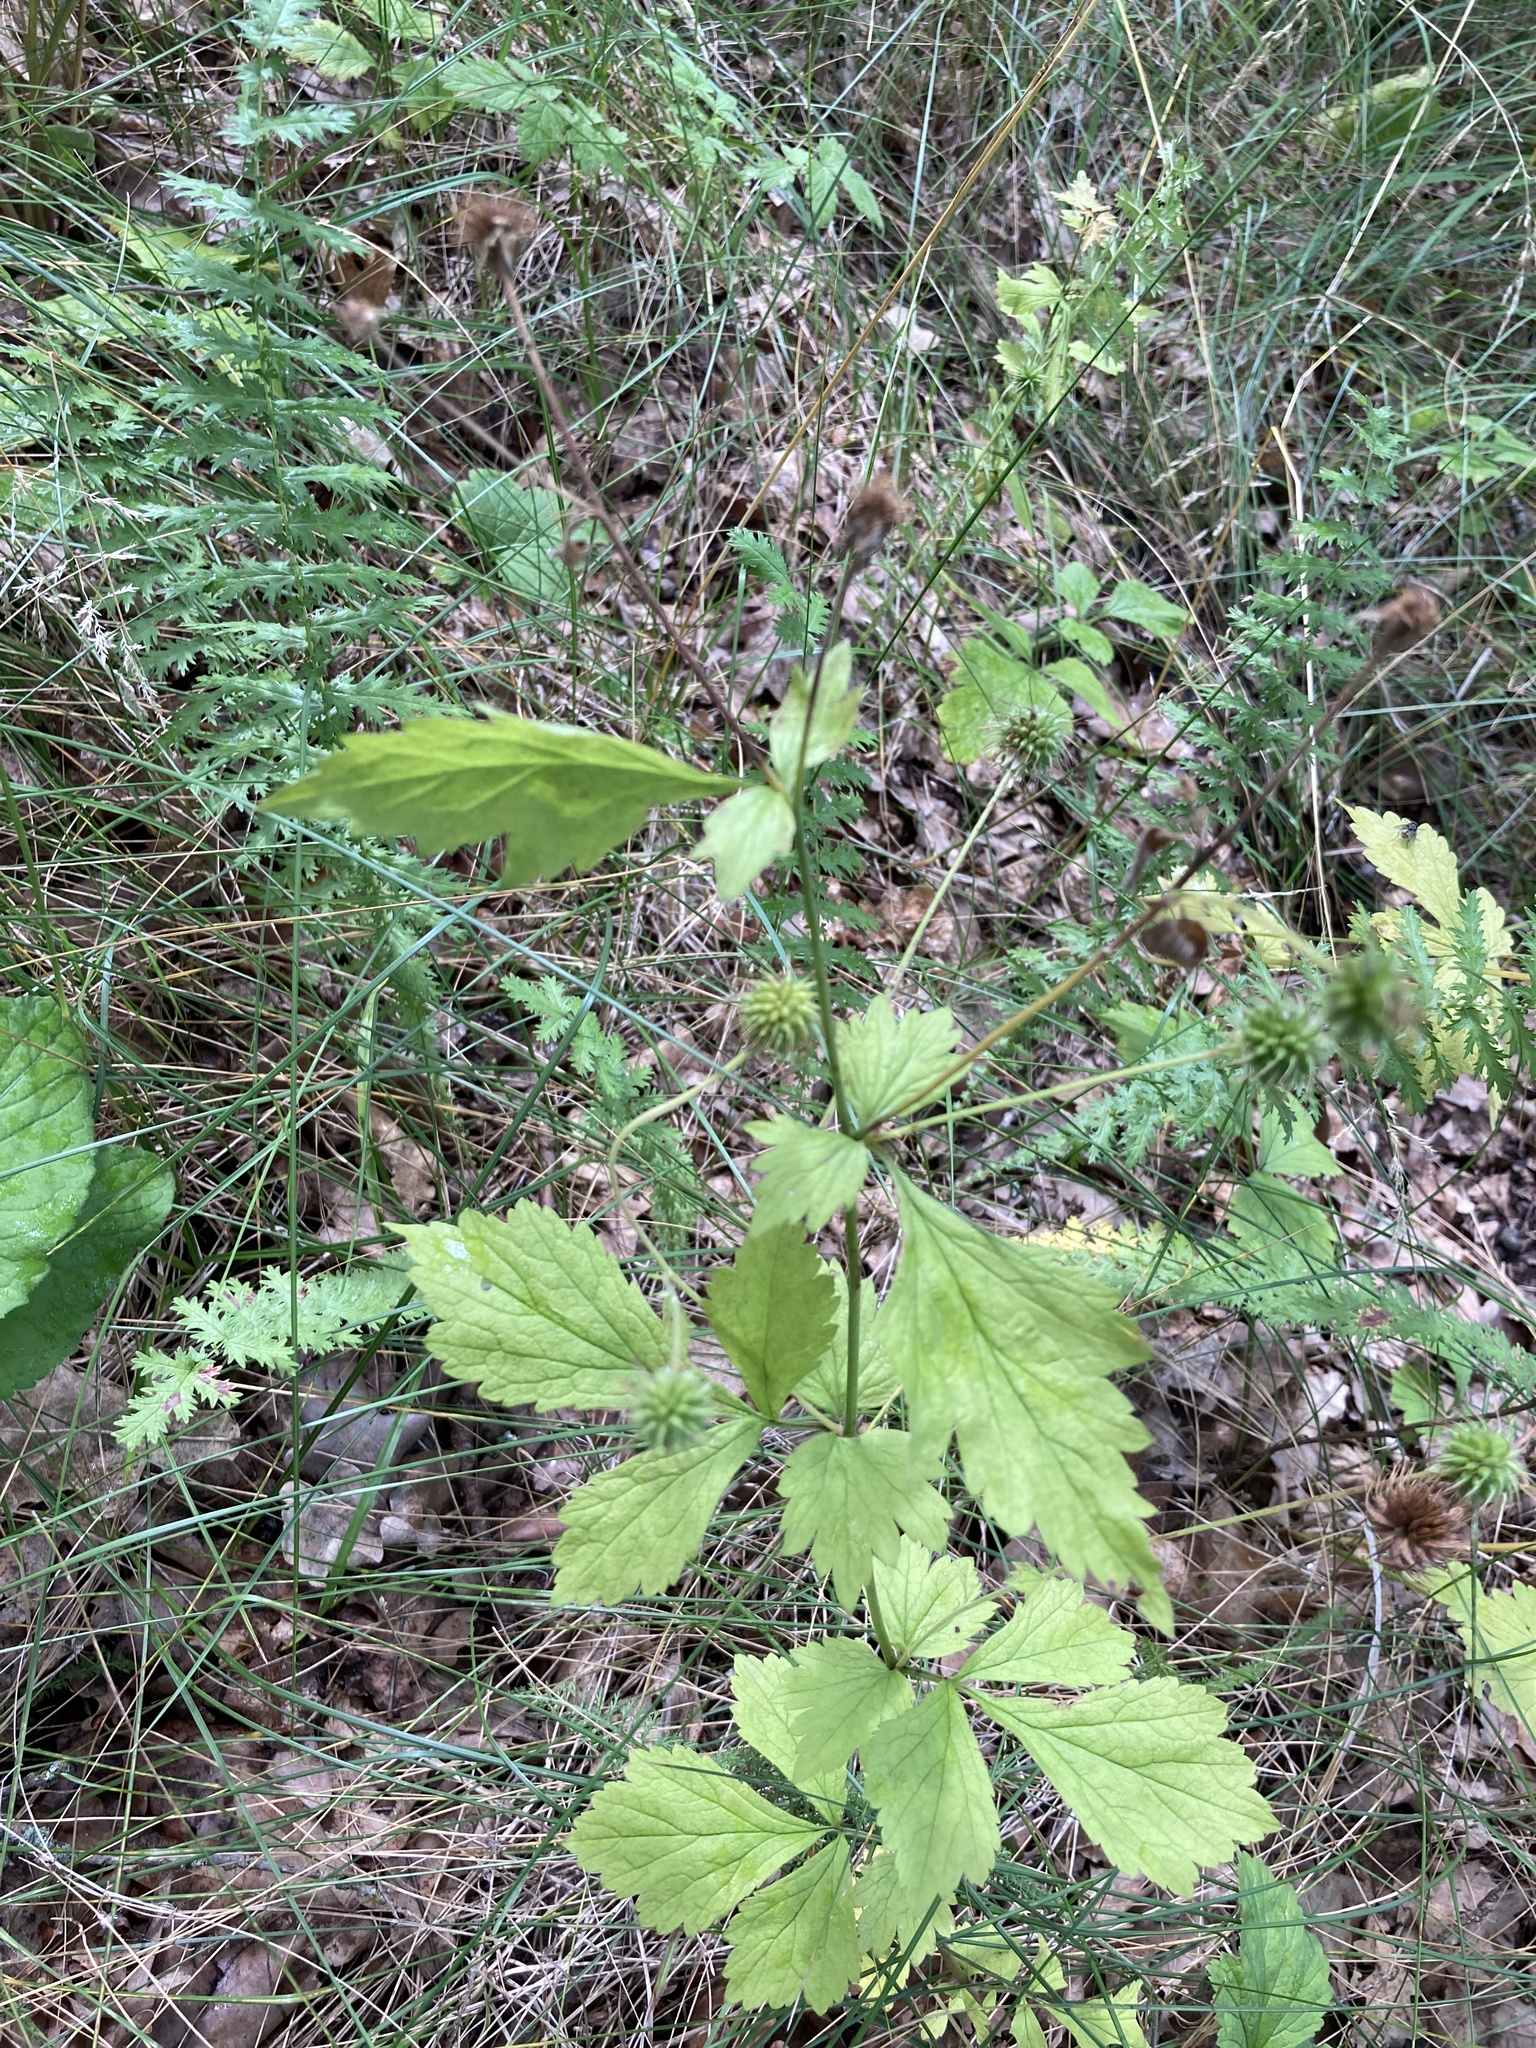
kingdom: Plantae
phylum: Tracheophyta
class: Magnoliopsida
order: Rosales
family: Rosaceae
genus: Geum
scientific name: Geum urbanum
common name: Wood avens
